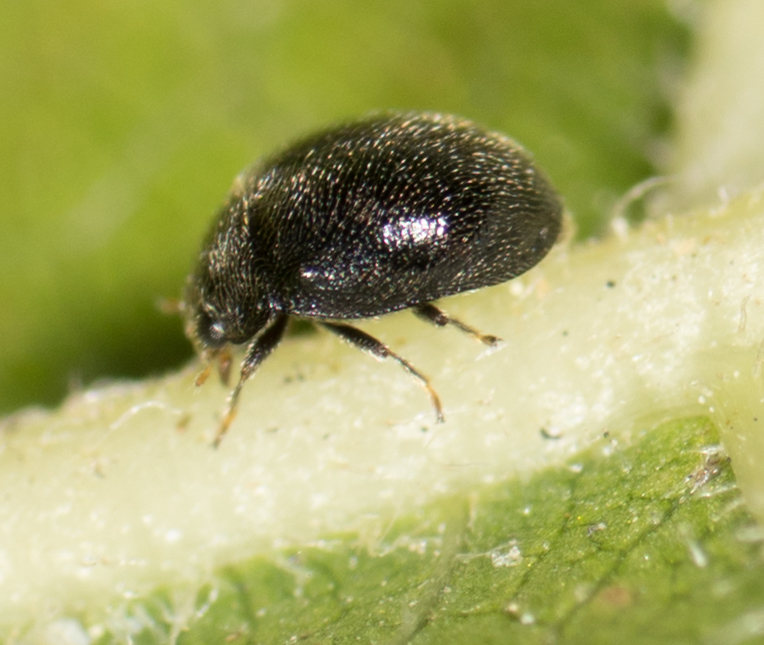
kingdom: Animalia
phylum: Arthropoda
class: Insecta
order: Coleoptera
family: Coccinellidae
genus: Stethorus
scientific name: Stethorus punctum
